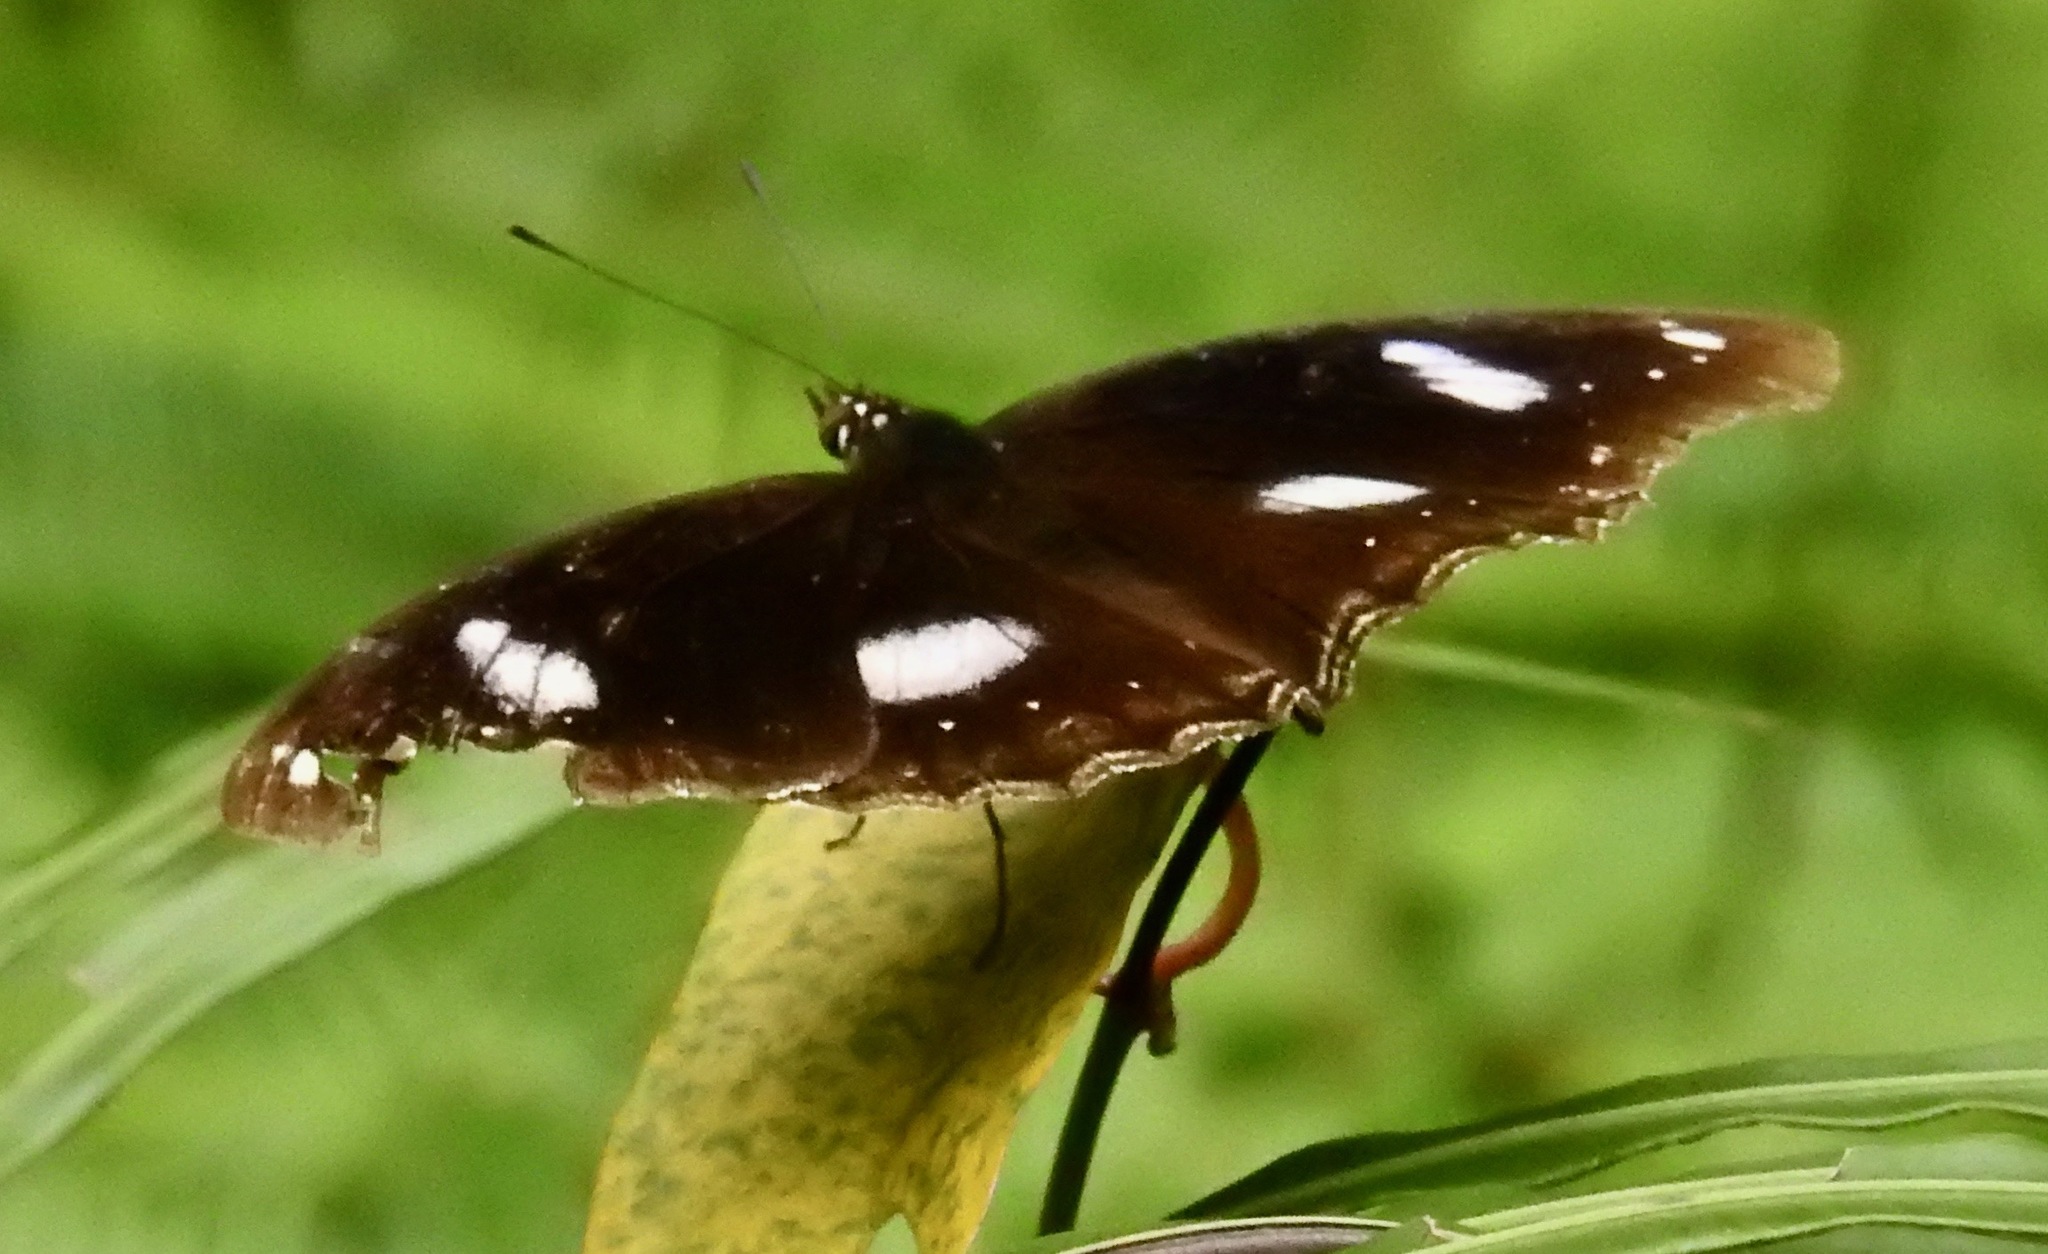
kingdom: Animalia
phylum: Arthropoda
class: Insecta
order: Lepidoptera
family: Nymphalidae
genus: Hypolimnas
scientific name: Hypolimnas bolina
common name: Great eggfly
